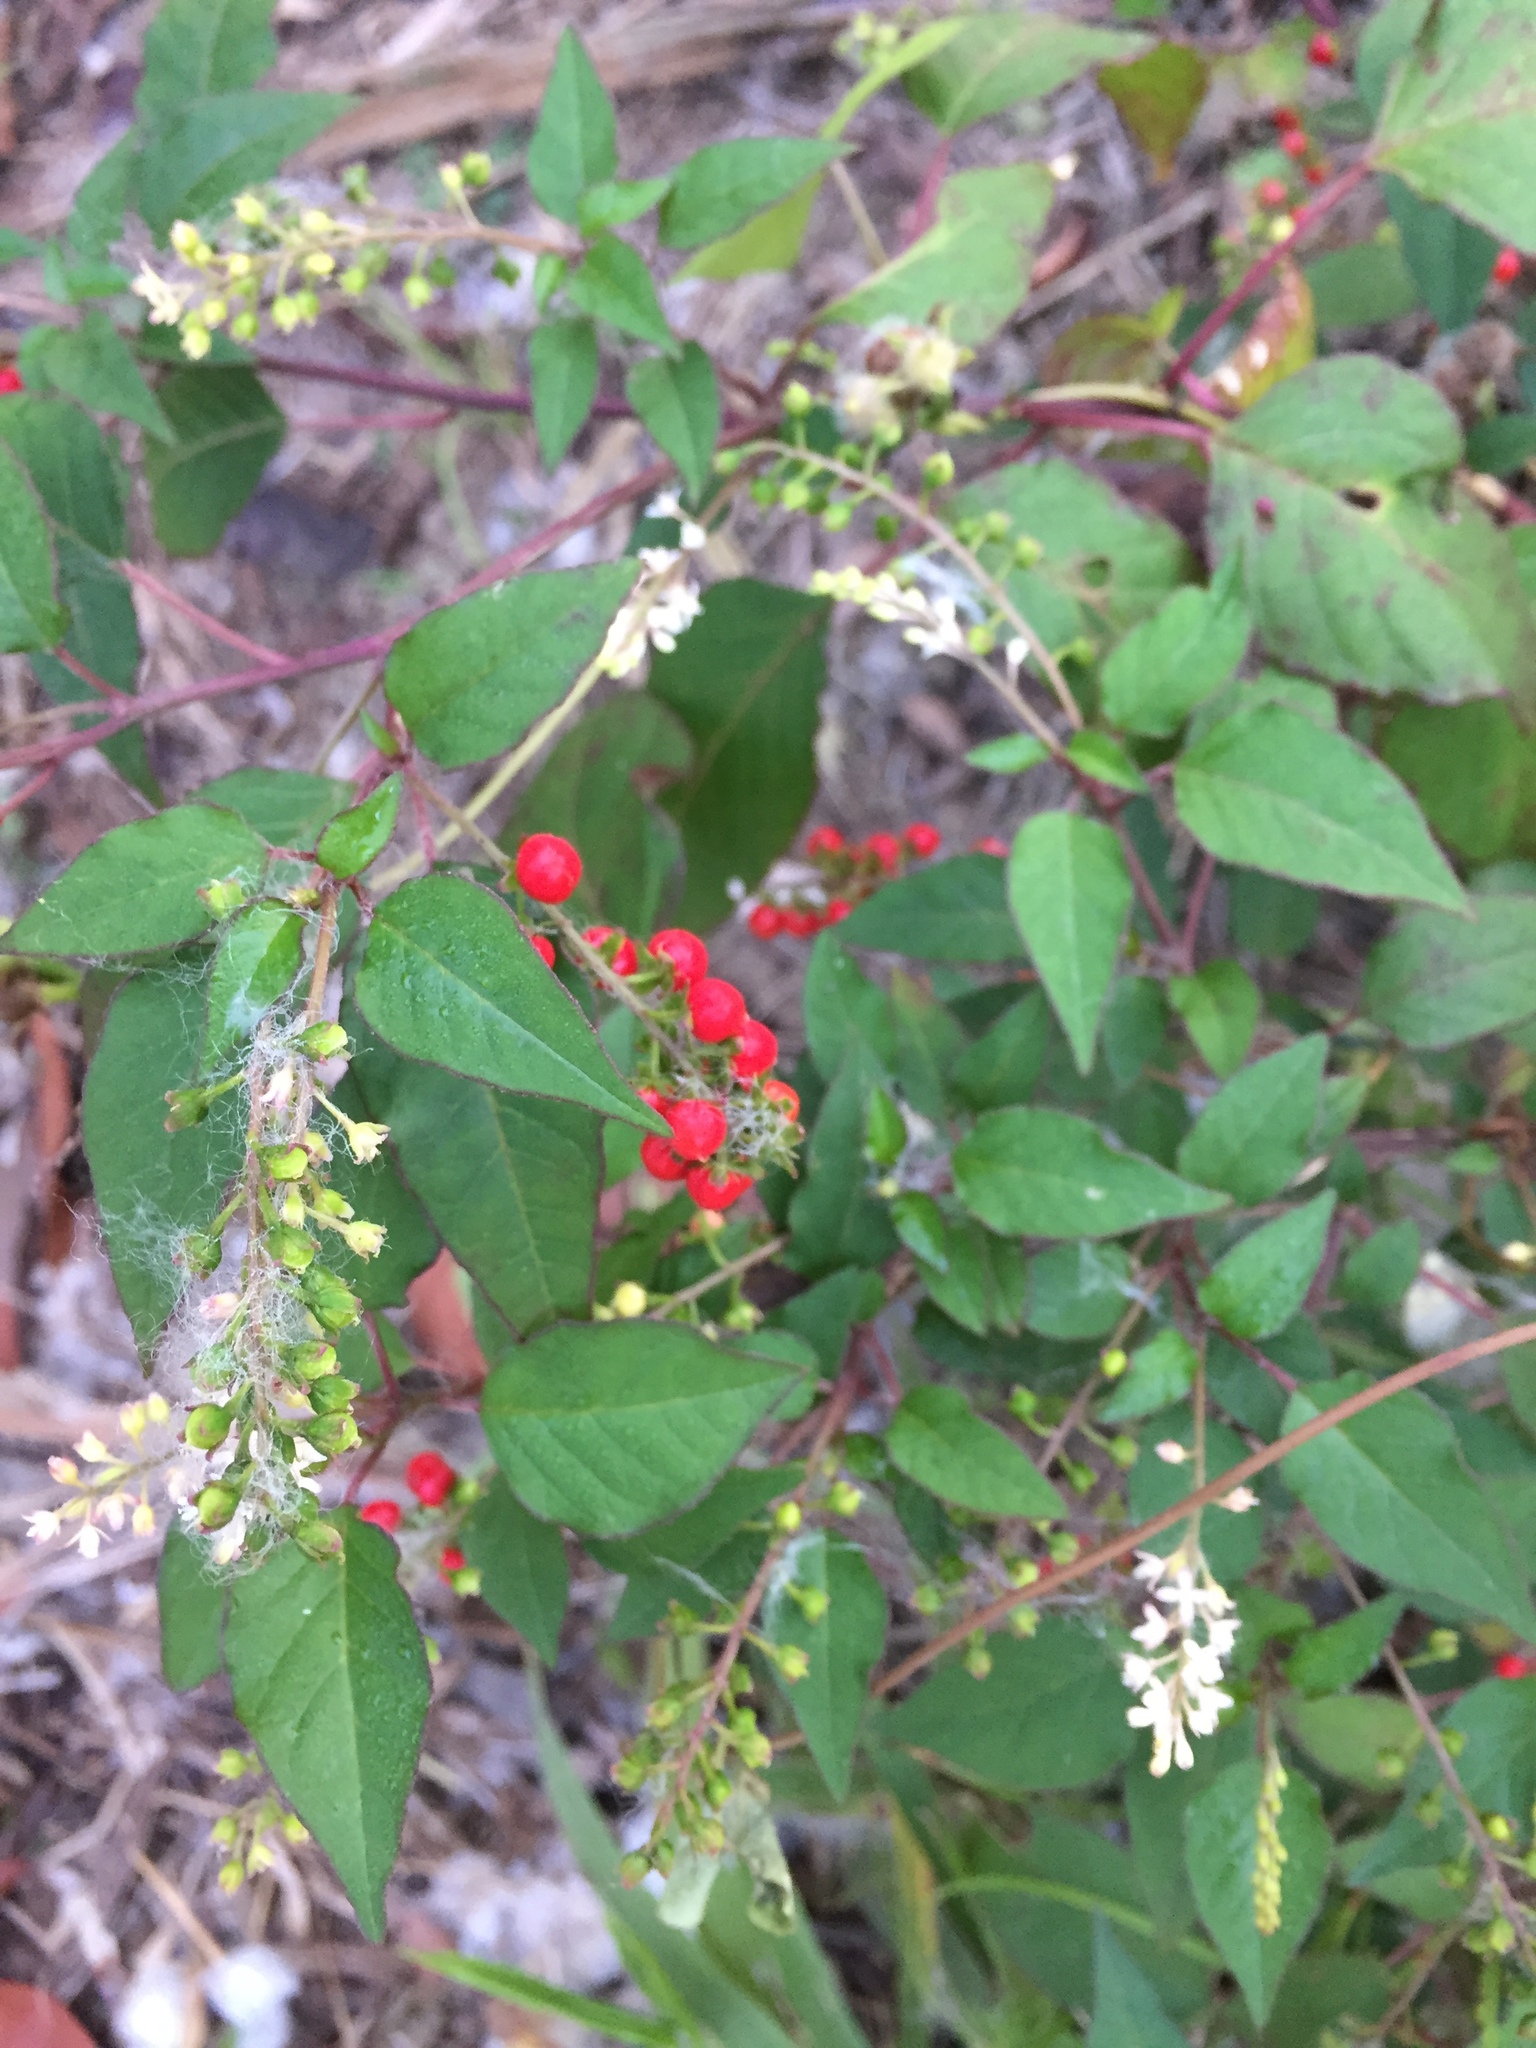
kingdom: Plantae
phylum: Tracheophyta
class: Magnoliopsida
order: Caryophyllales
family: Phytolaccaceae
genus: Rivina
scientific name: Rivina humilis
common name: Rougeplant
